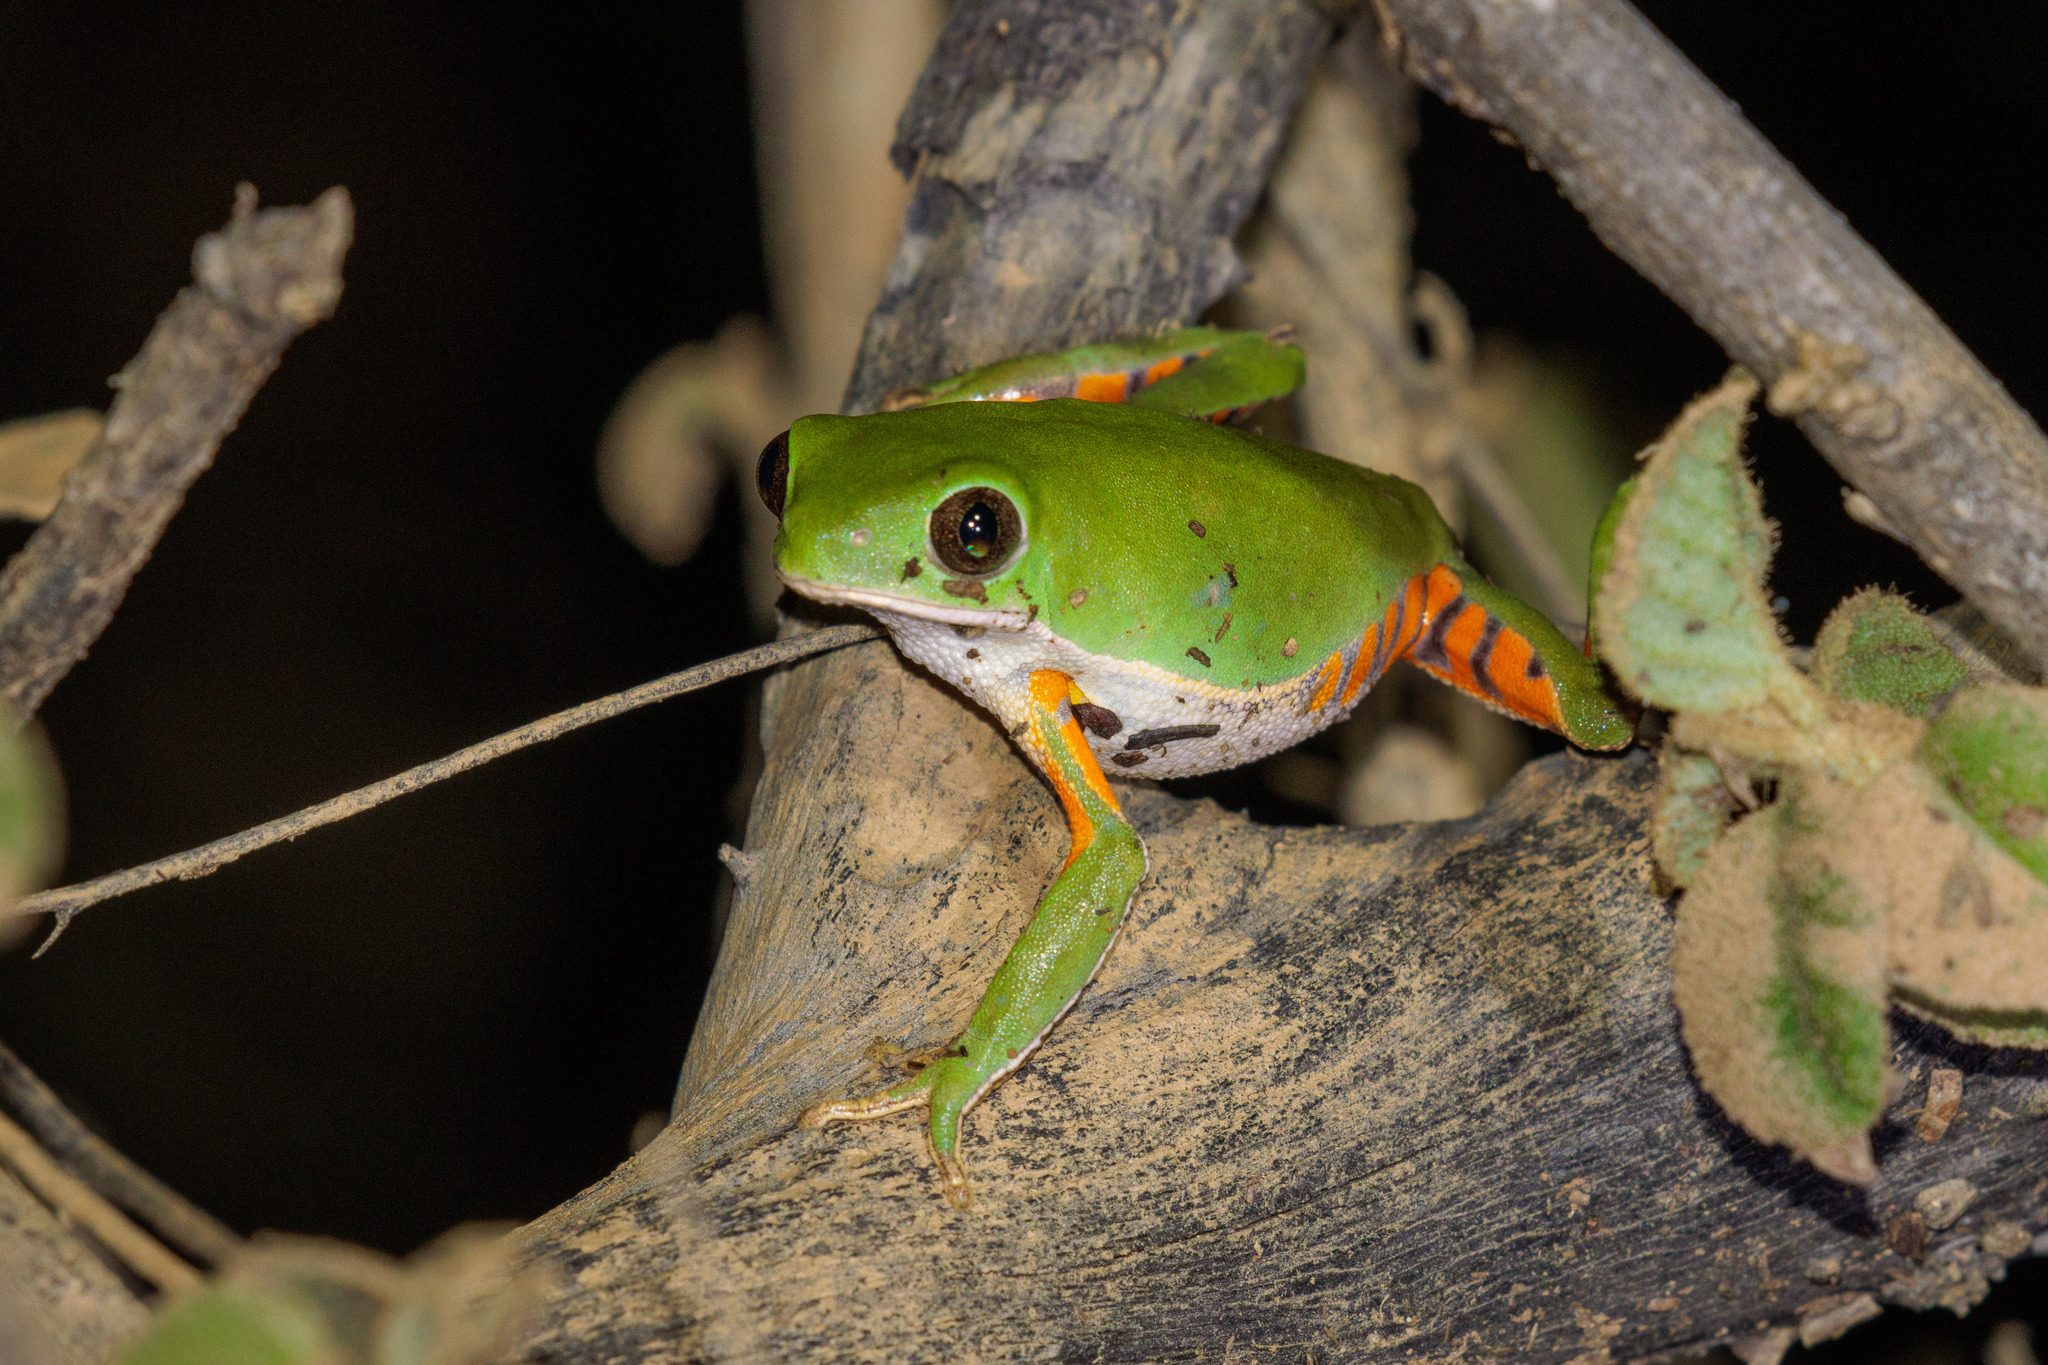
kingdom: Animalia
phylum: Chordata
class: Amphibia
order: Anura
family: Phyllomedusidae
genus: Pithecopus
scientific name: Pithecopus gonzagai
